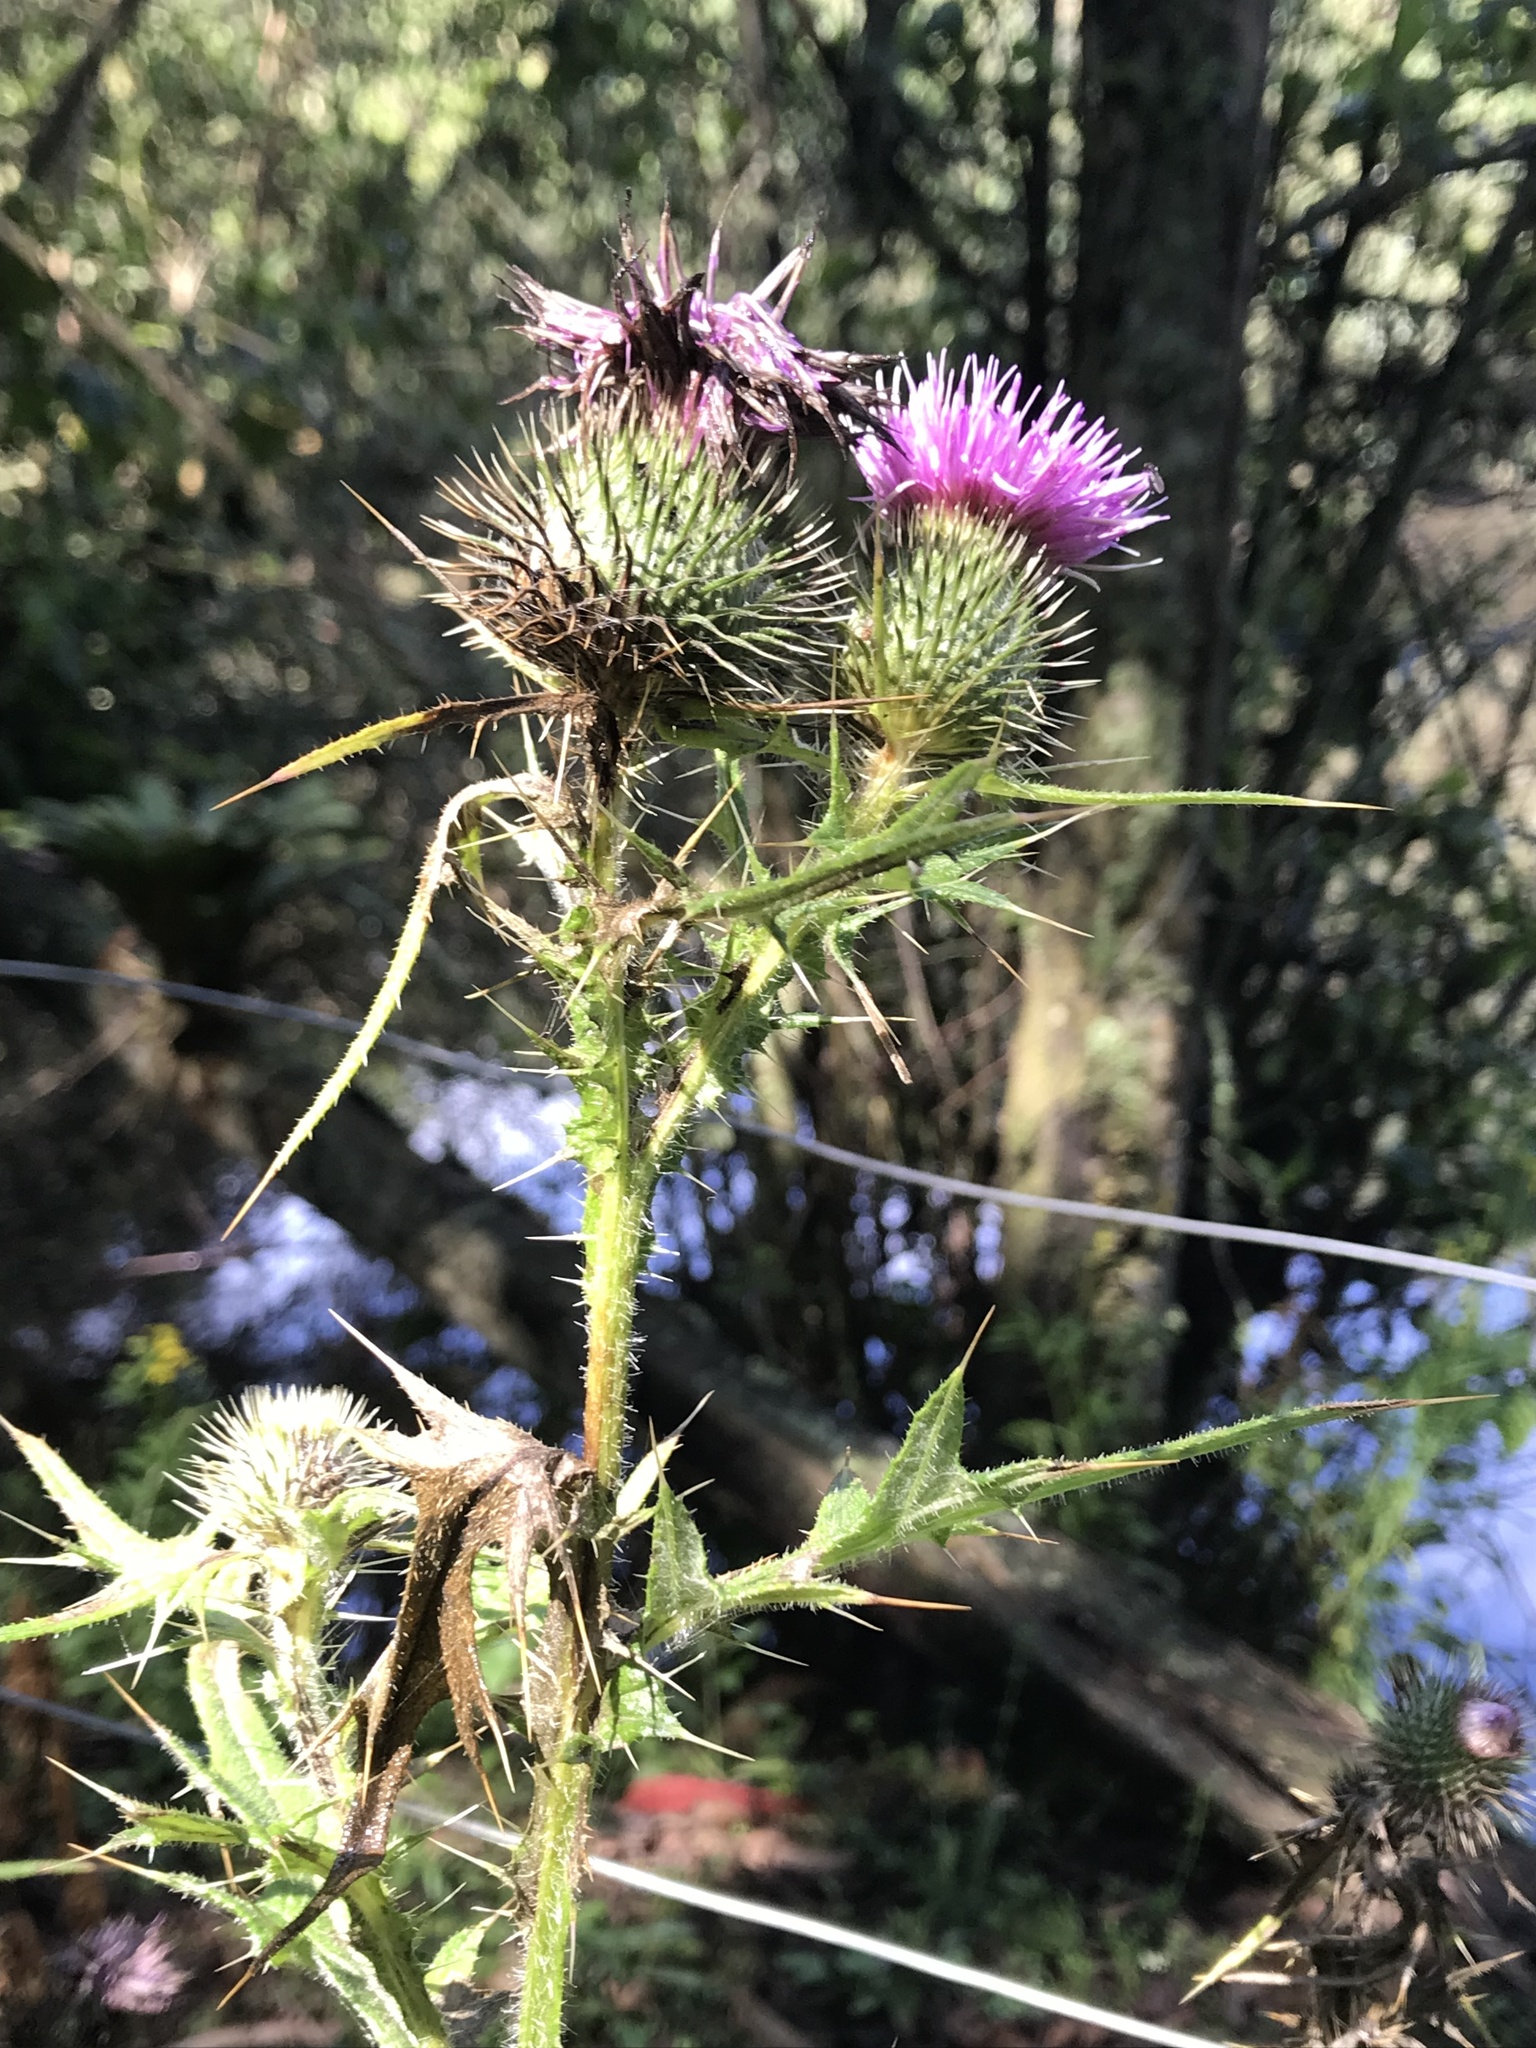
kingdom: Plantae
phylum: Tracheophyta
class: Magnoliopsida
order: Asterales
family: Asteraceae
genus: Cirsium
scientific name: Cirsium vulgare
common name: Bull thistle
